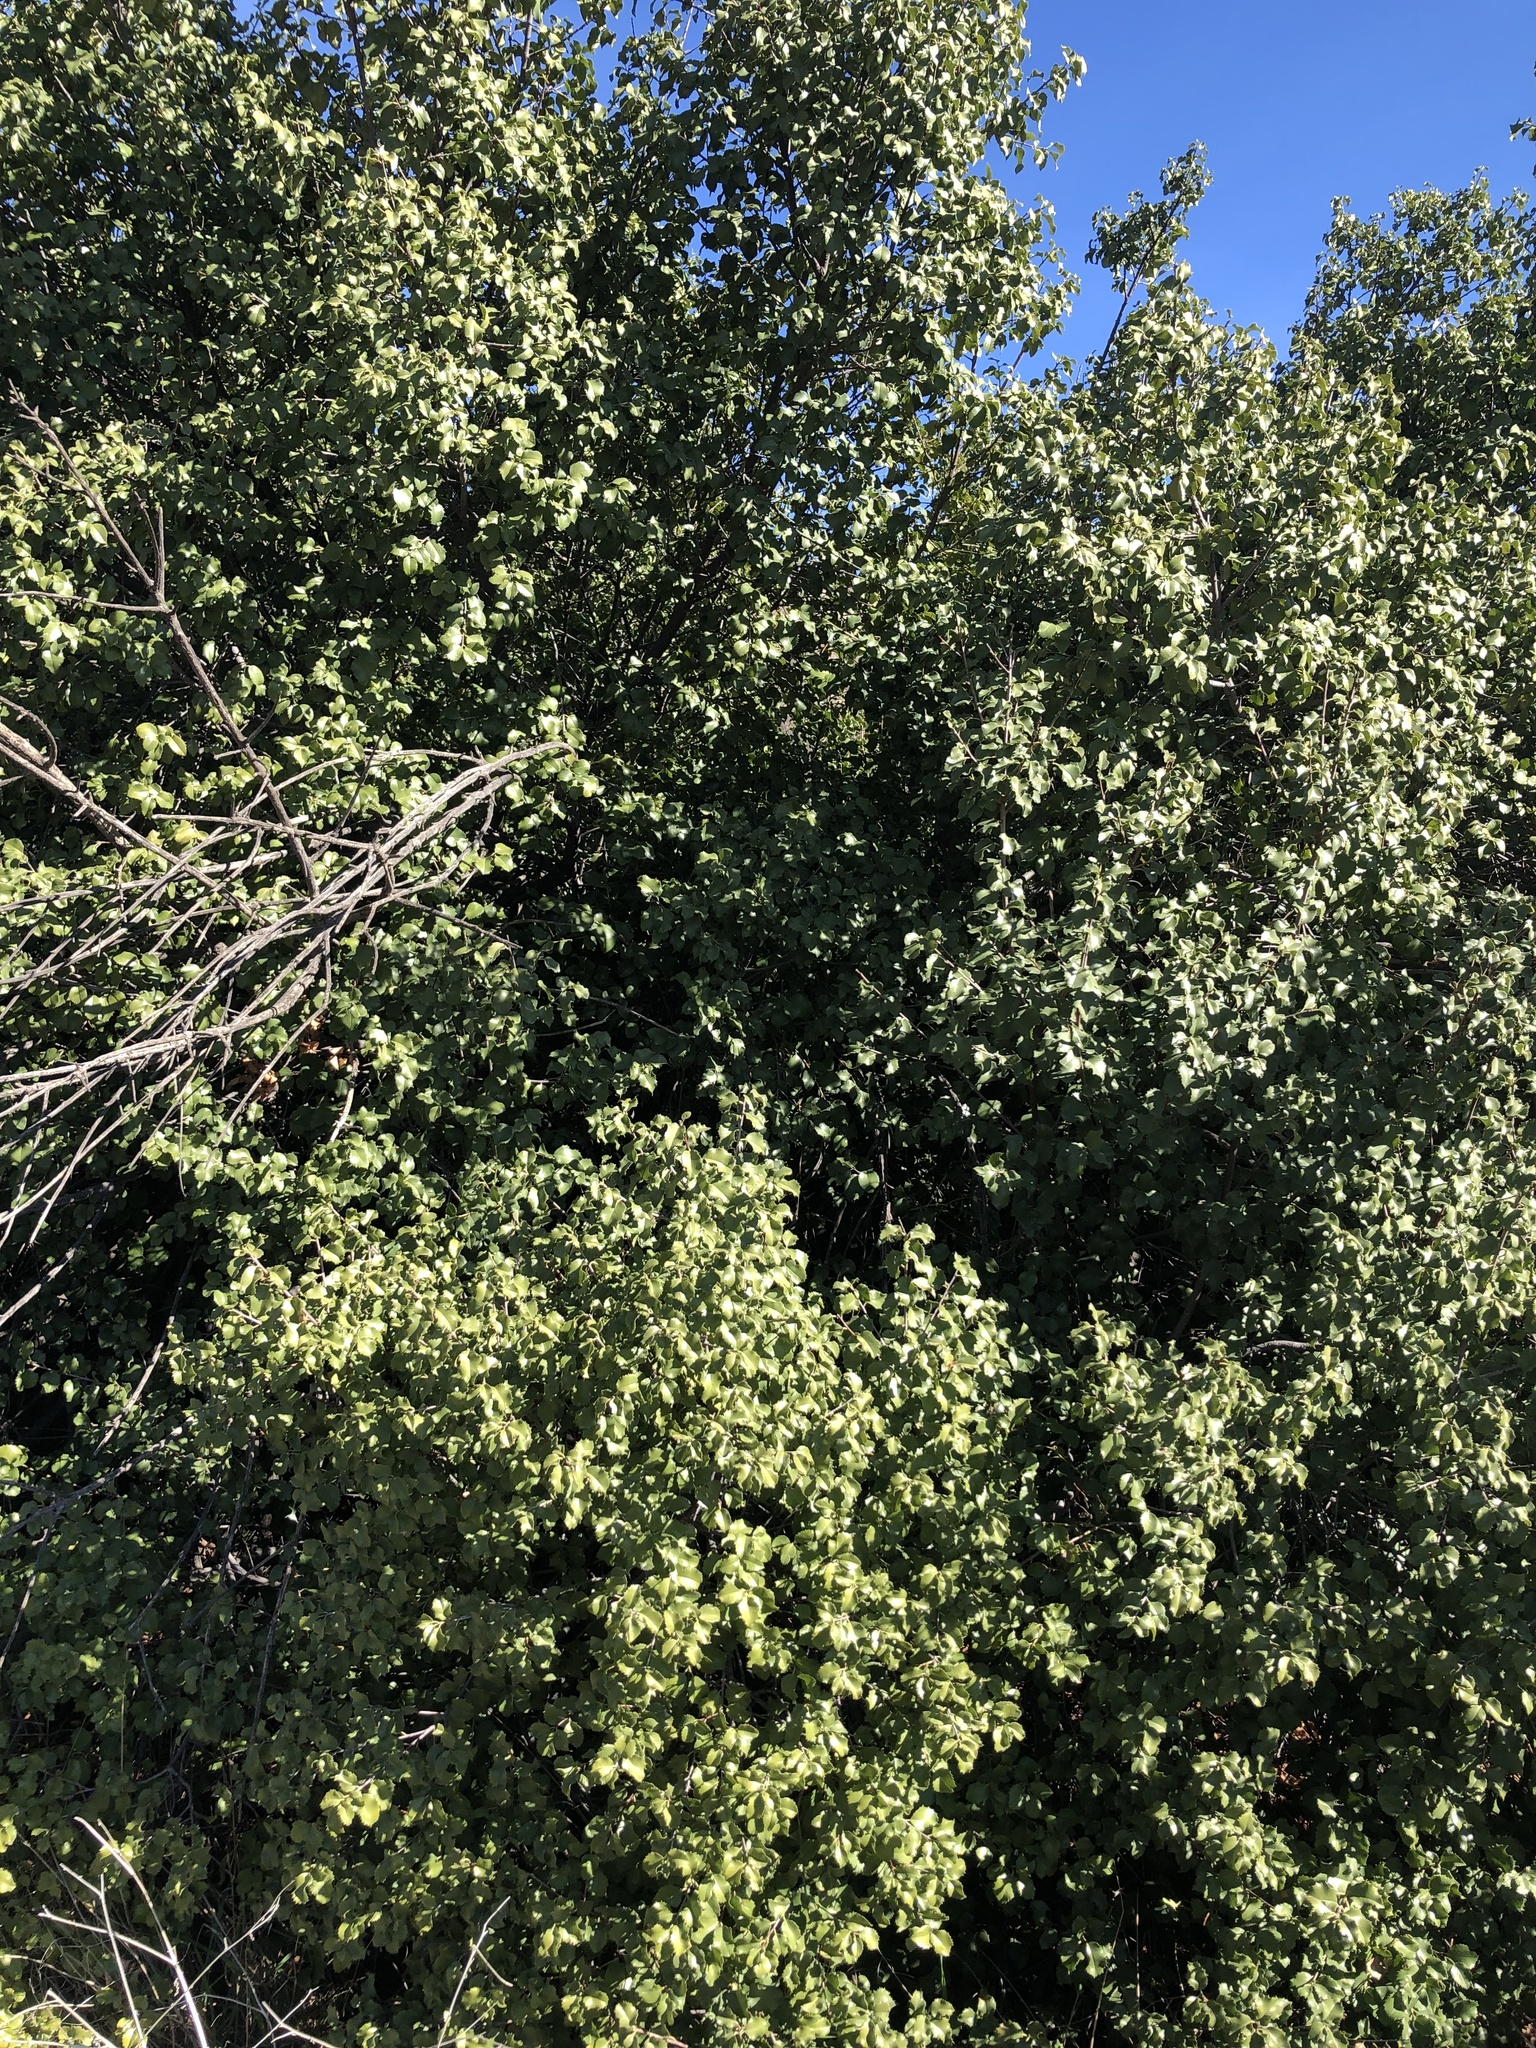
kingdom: Plantae
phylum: Tracheophyta
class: Magnoliopsida
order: Rosales
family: Rosaceae
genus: Prunus
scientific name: Prunus ilicifolia
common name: Hollyleaf cherry
